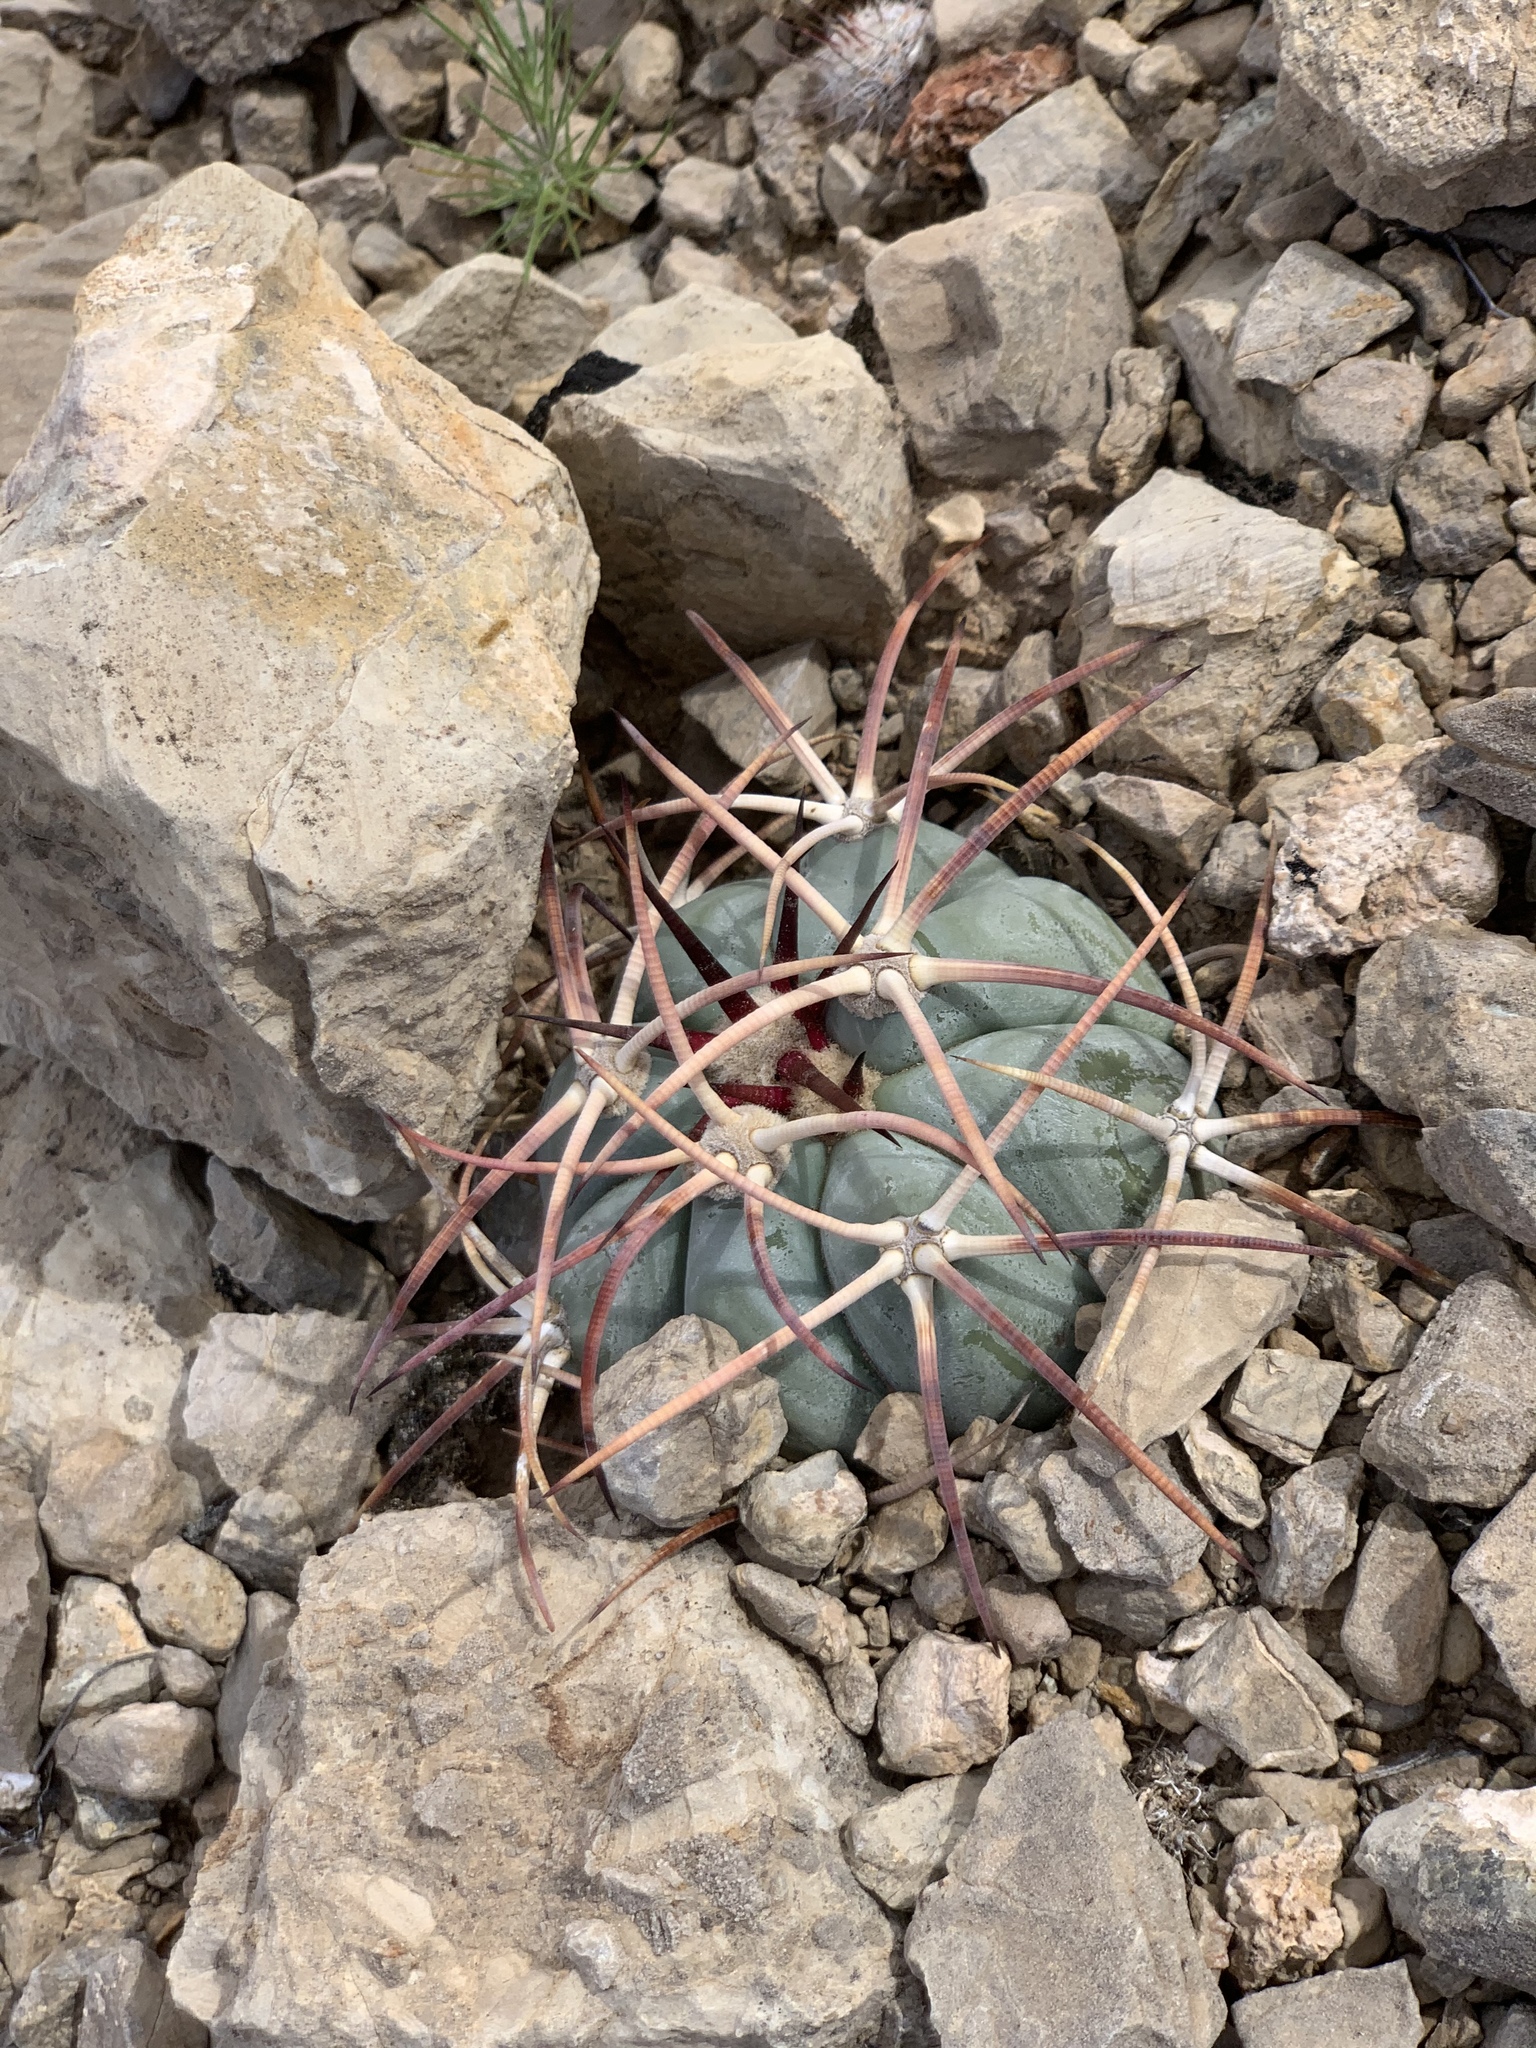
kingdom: Plantae
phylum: Tracheophyta
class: Magnoliopsida
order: Caryophyllales
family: Cactaceae
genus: Echinocactus
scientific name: Echinocactus horizonthalonius
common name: Devilshead
